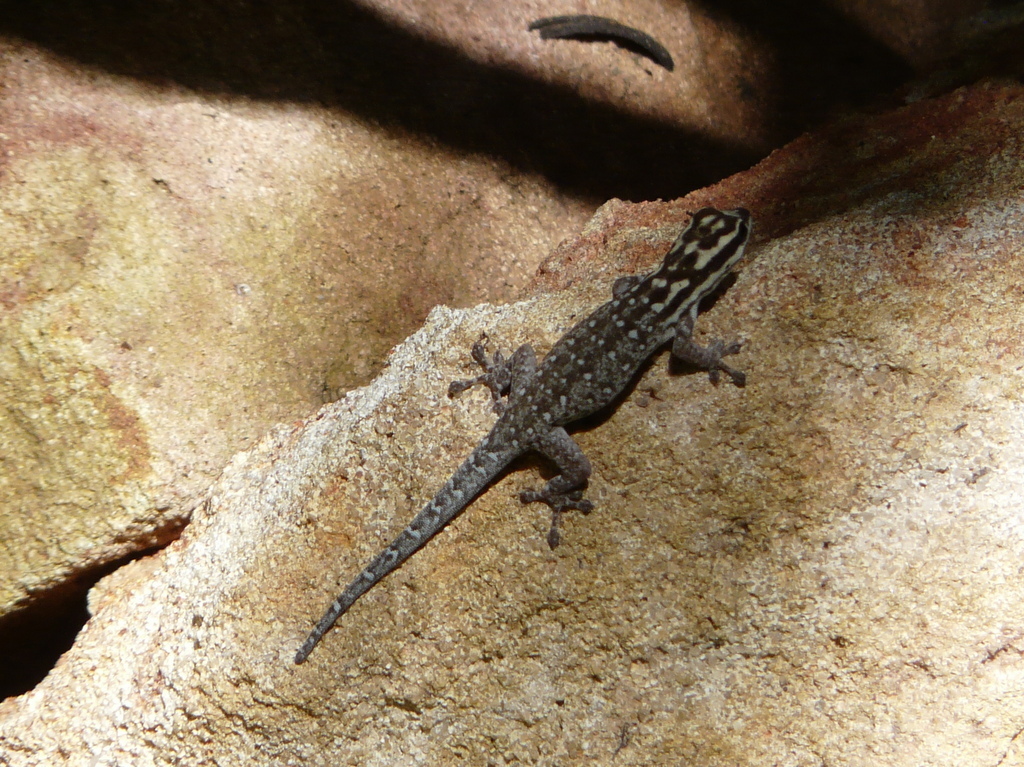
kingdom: Animalia
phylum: Chordata
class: Squamata
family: Gekkonidae
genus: Lygodactylus
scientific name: Lygodactylus mombasicus
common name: White-headed dwarf gecko
